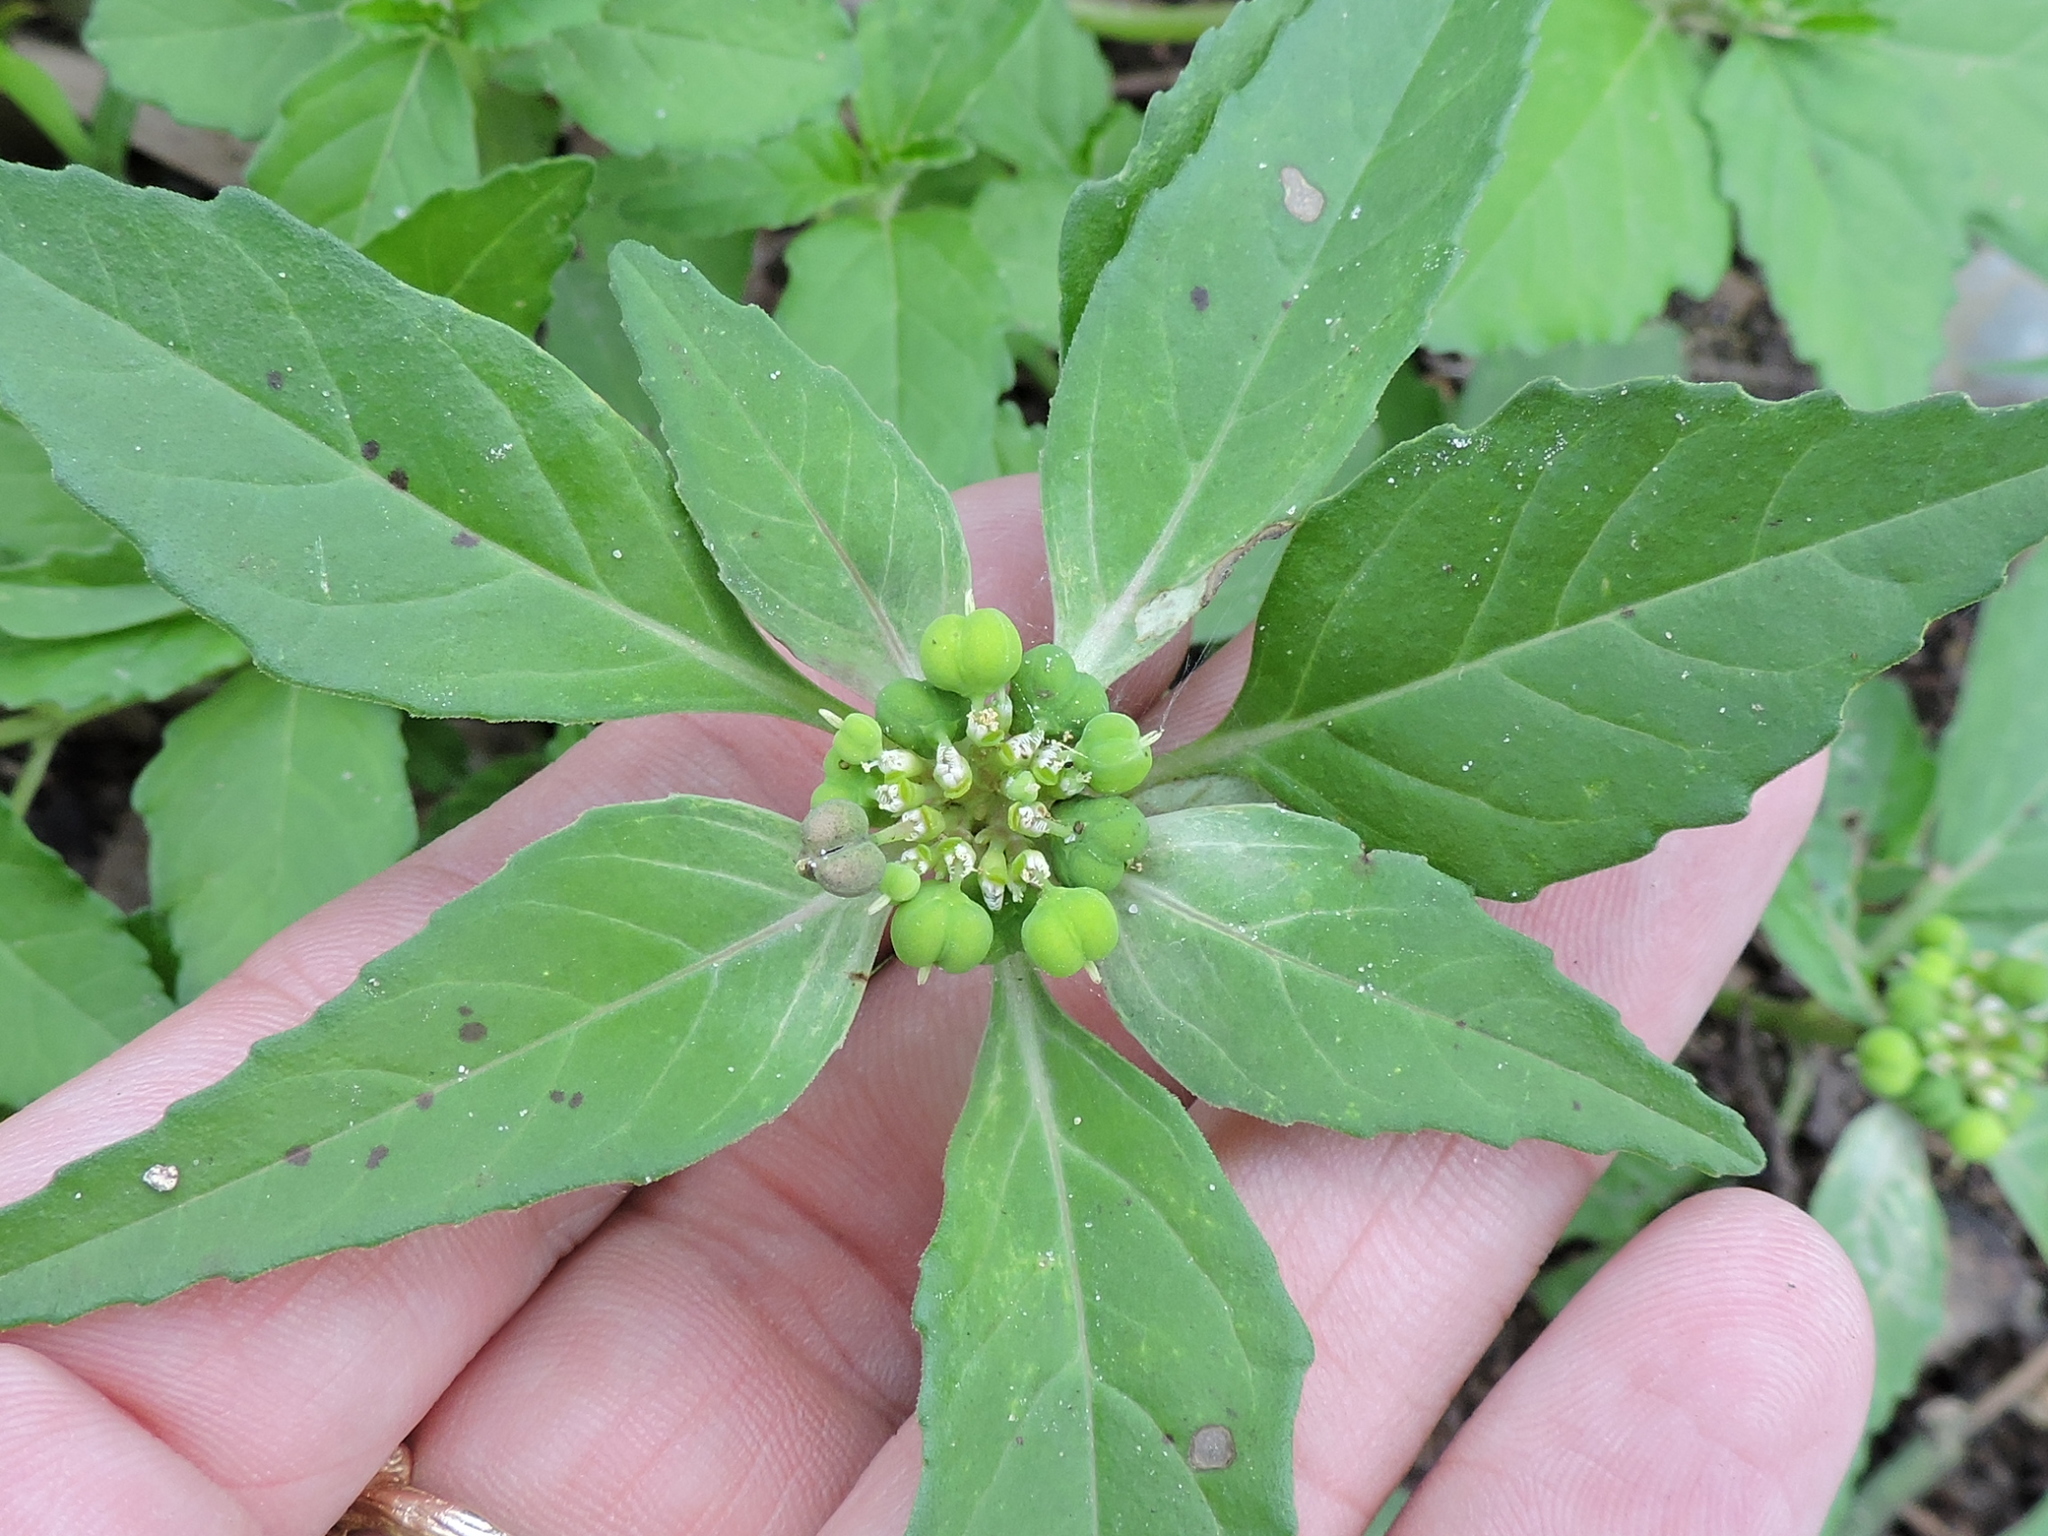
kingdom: Plantae
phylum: Tracheophyta
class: Magnoliopsida
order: Malpighiales
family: Euphorbiaceae
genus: Euphorbia
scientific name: Euphorbia dentata
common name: Dentate spurge
